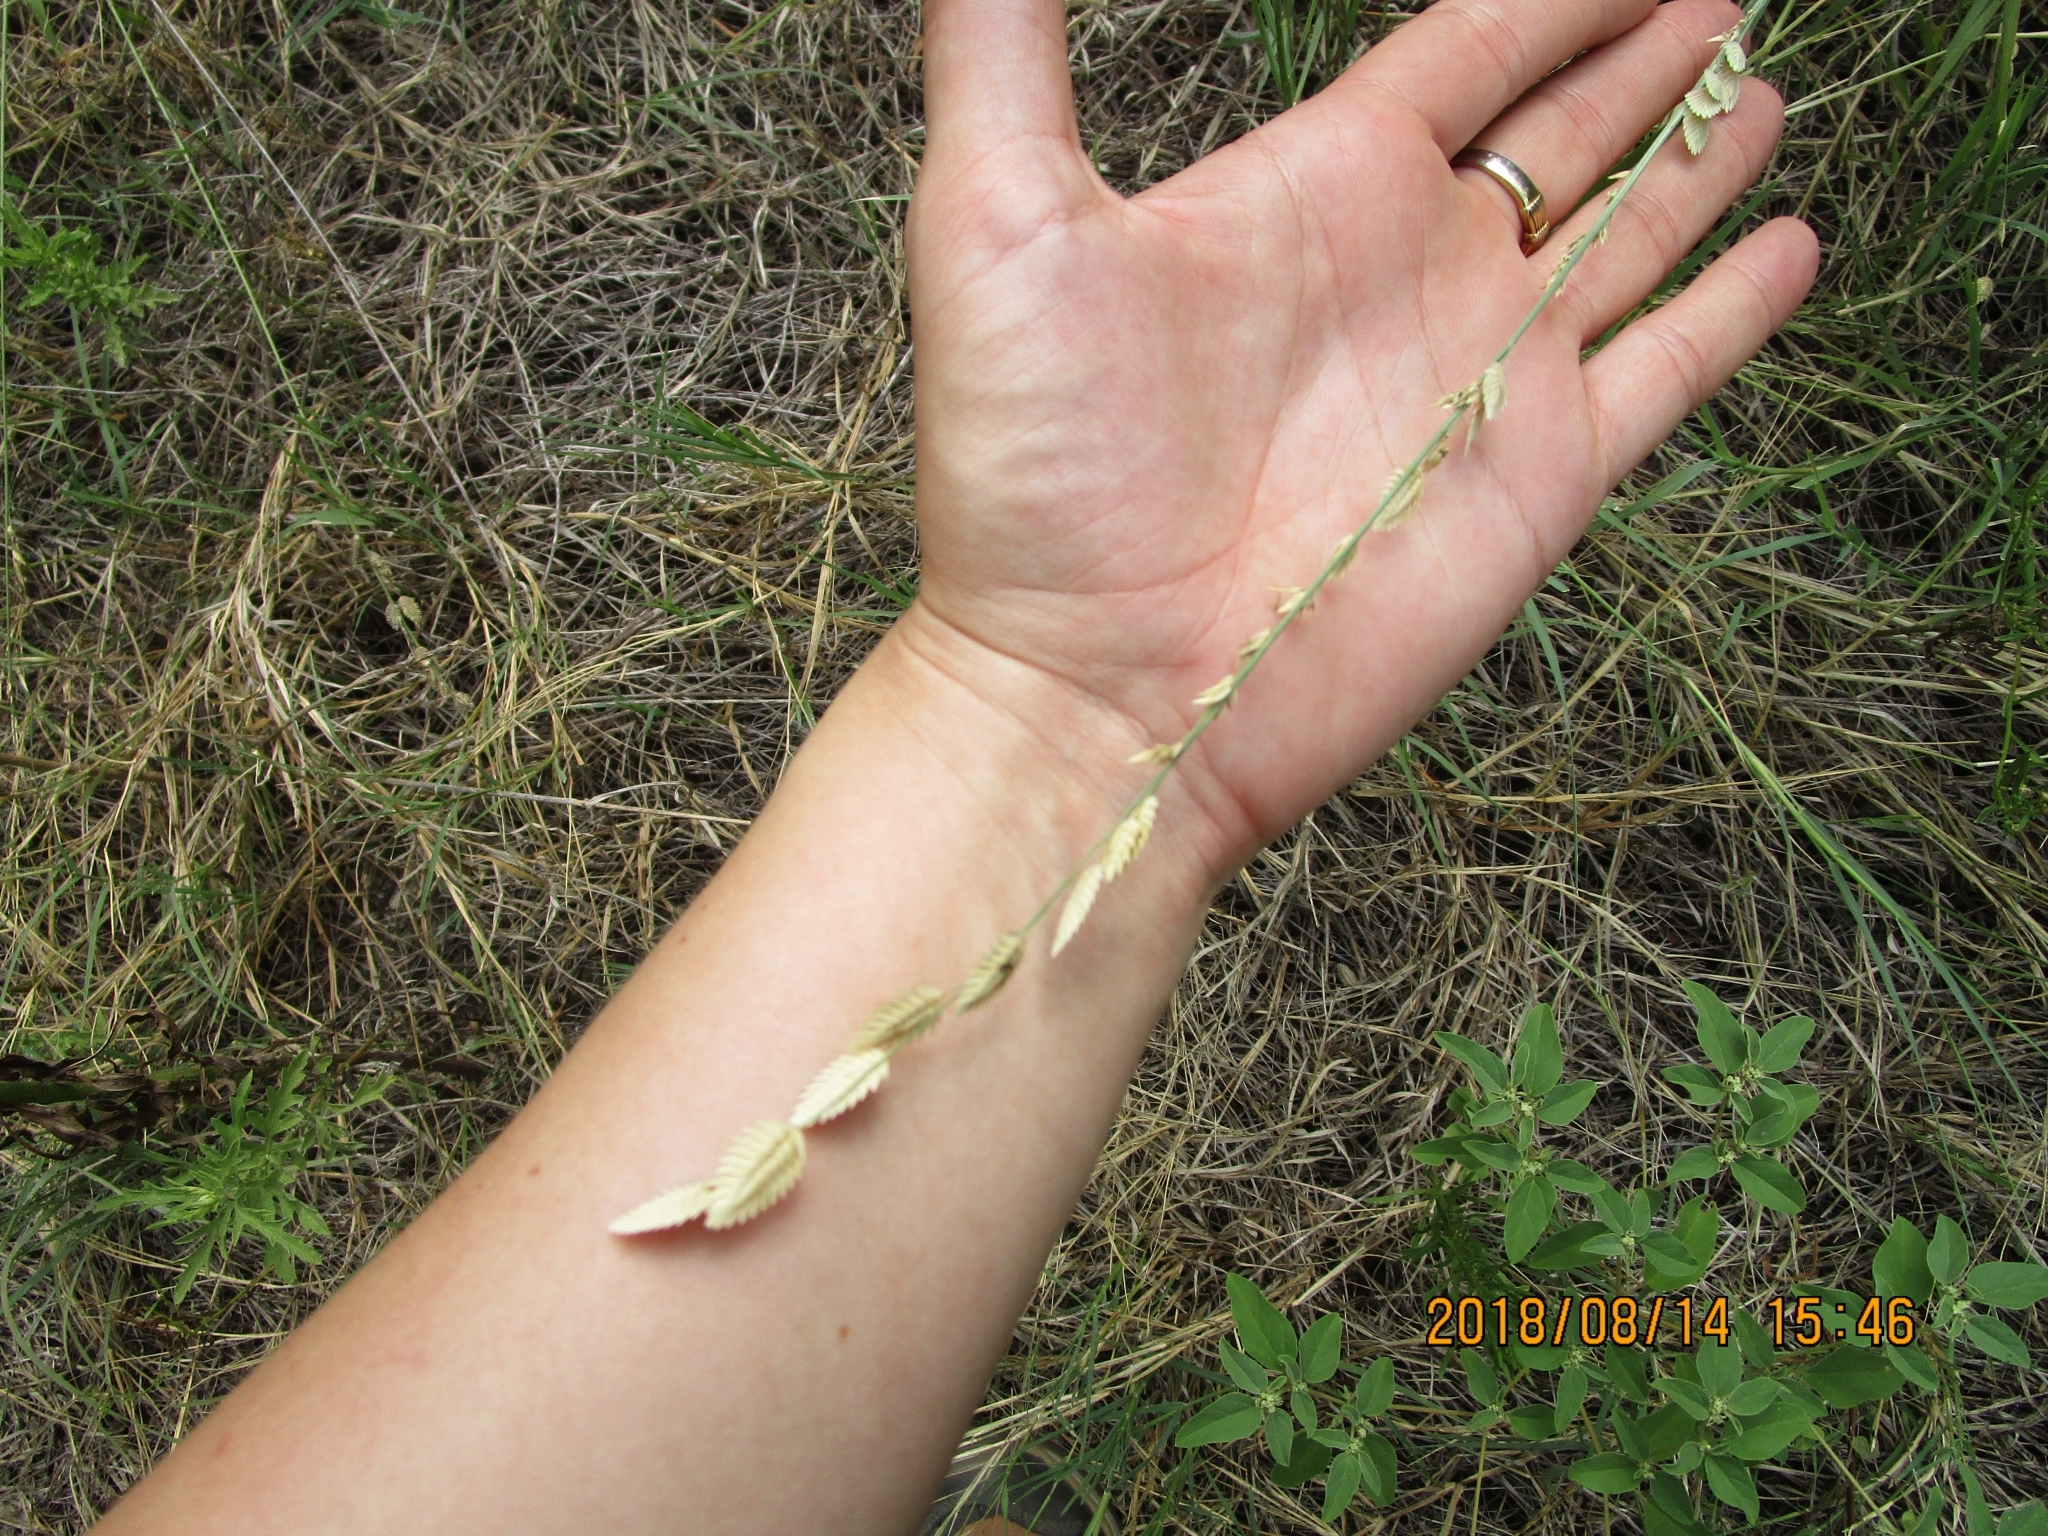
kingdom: Plantae
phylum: Tracheophyta
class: Liliopsida
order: Poales
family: Poaceae
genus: Eragrostis
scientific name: Eragrostis superba
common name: Wilman lovegrass
